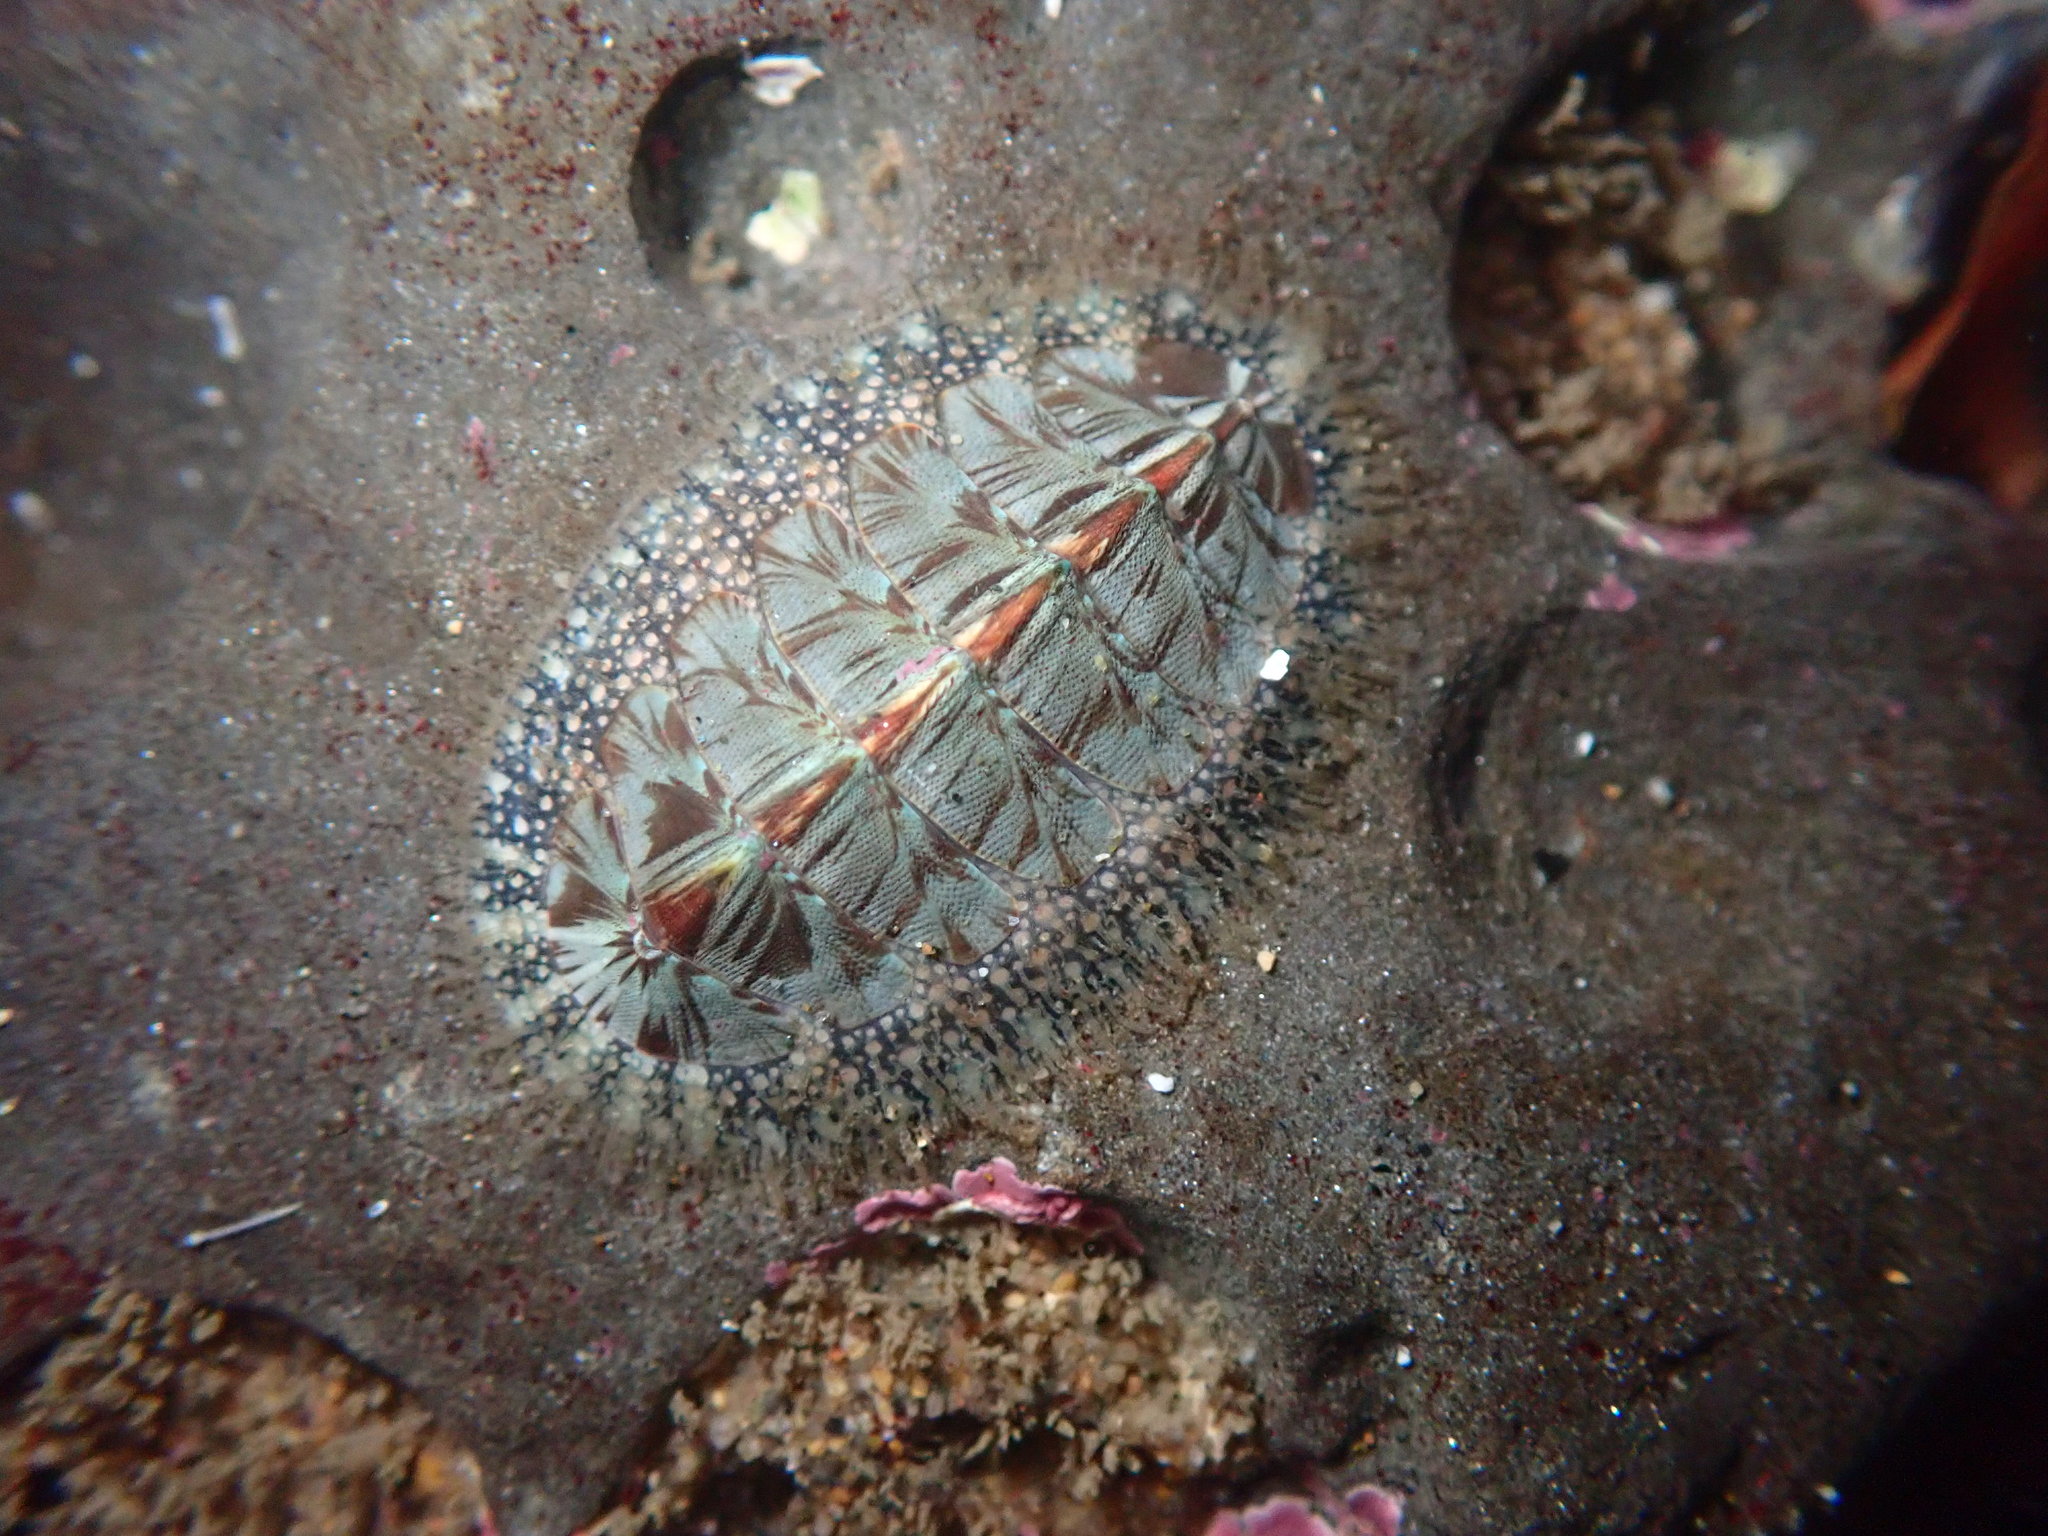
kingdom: Animalia
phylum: Mollusca
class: Polyplacophora
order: Chitonida
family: Mopaliidae
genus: Mopalia
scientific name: Mopalia lignosa
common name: Woody chiton
